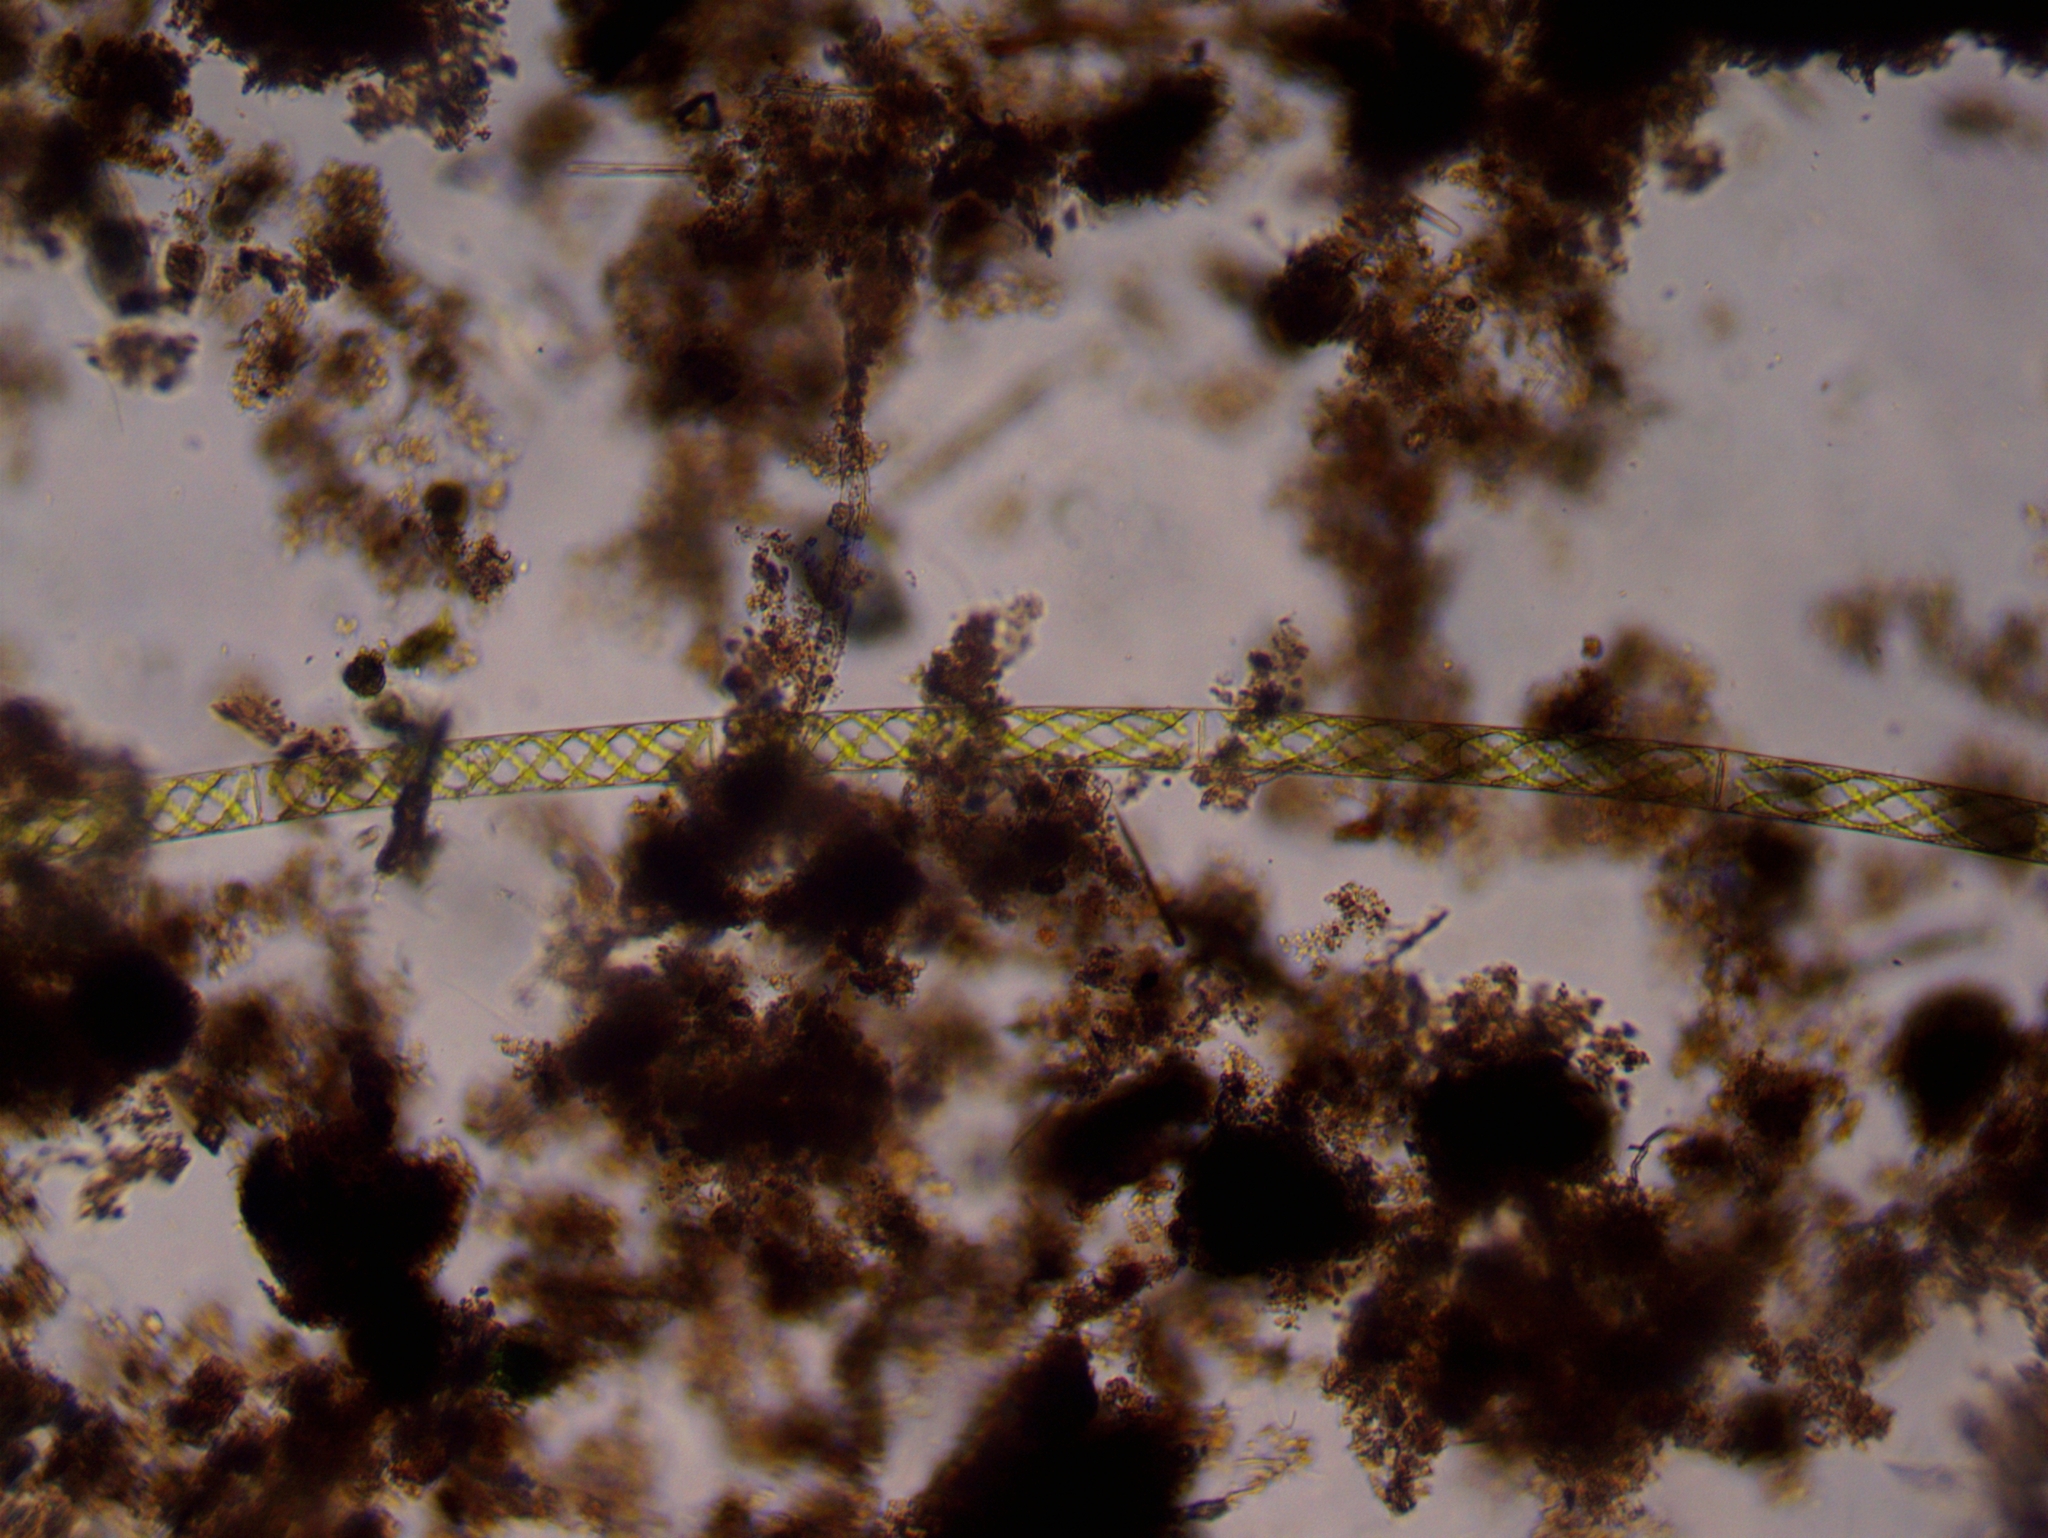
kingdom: Plantae
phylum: Charophyta
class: Zygnematophyceae
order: Zygnematales
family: Zygnemataceae
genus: Spirogyra
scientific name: Spirogyra
